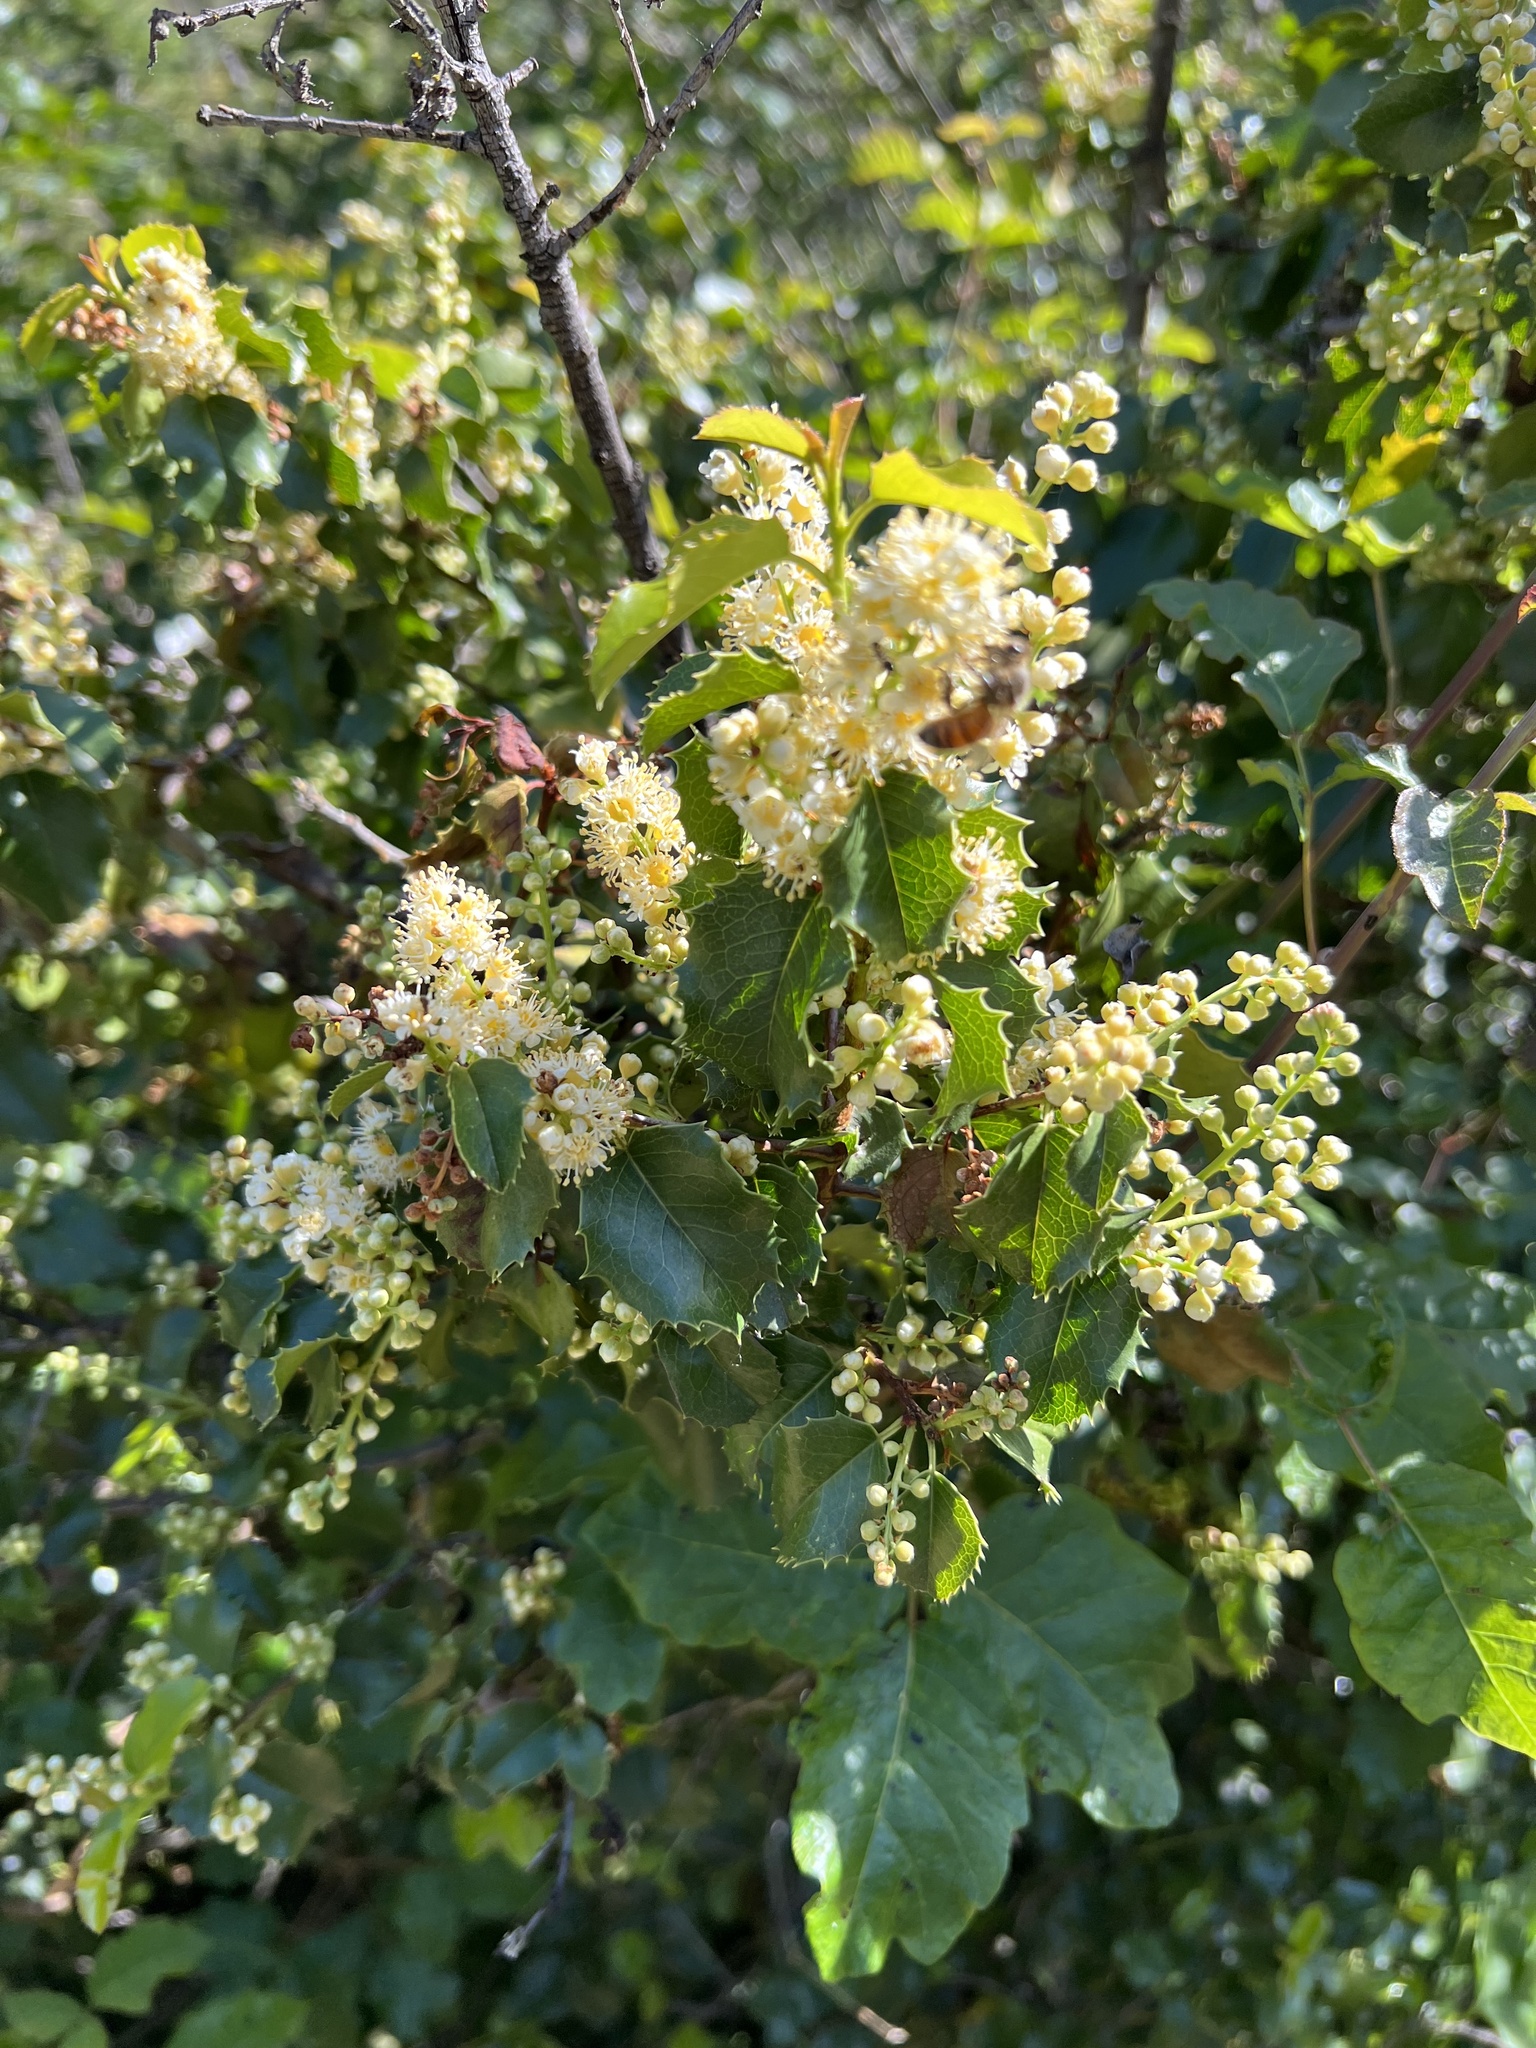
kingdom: Plantae
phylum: Tracheophyta
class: Magnoliopsida
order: Rosales
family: Rosaceae
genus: Prunus
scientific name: Prunus ilicifolia
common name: Hollyleaf cherry
